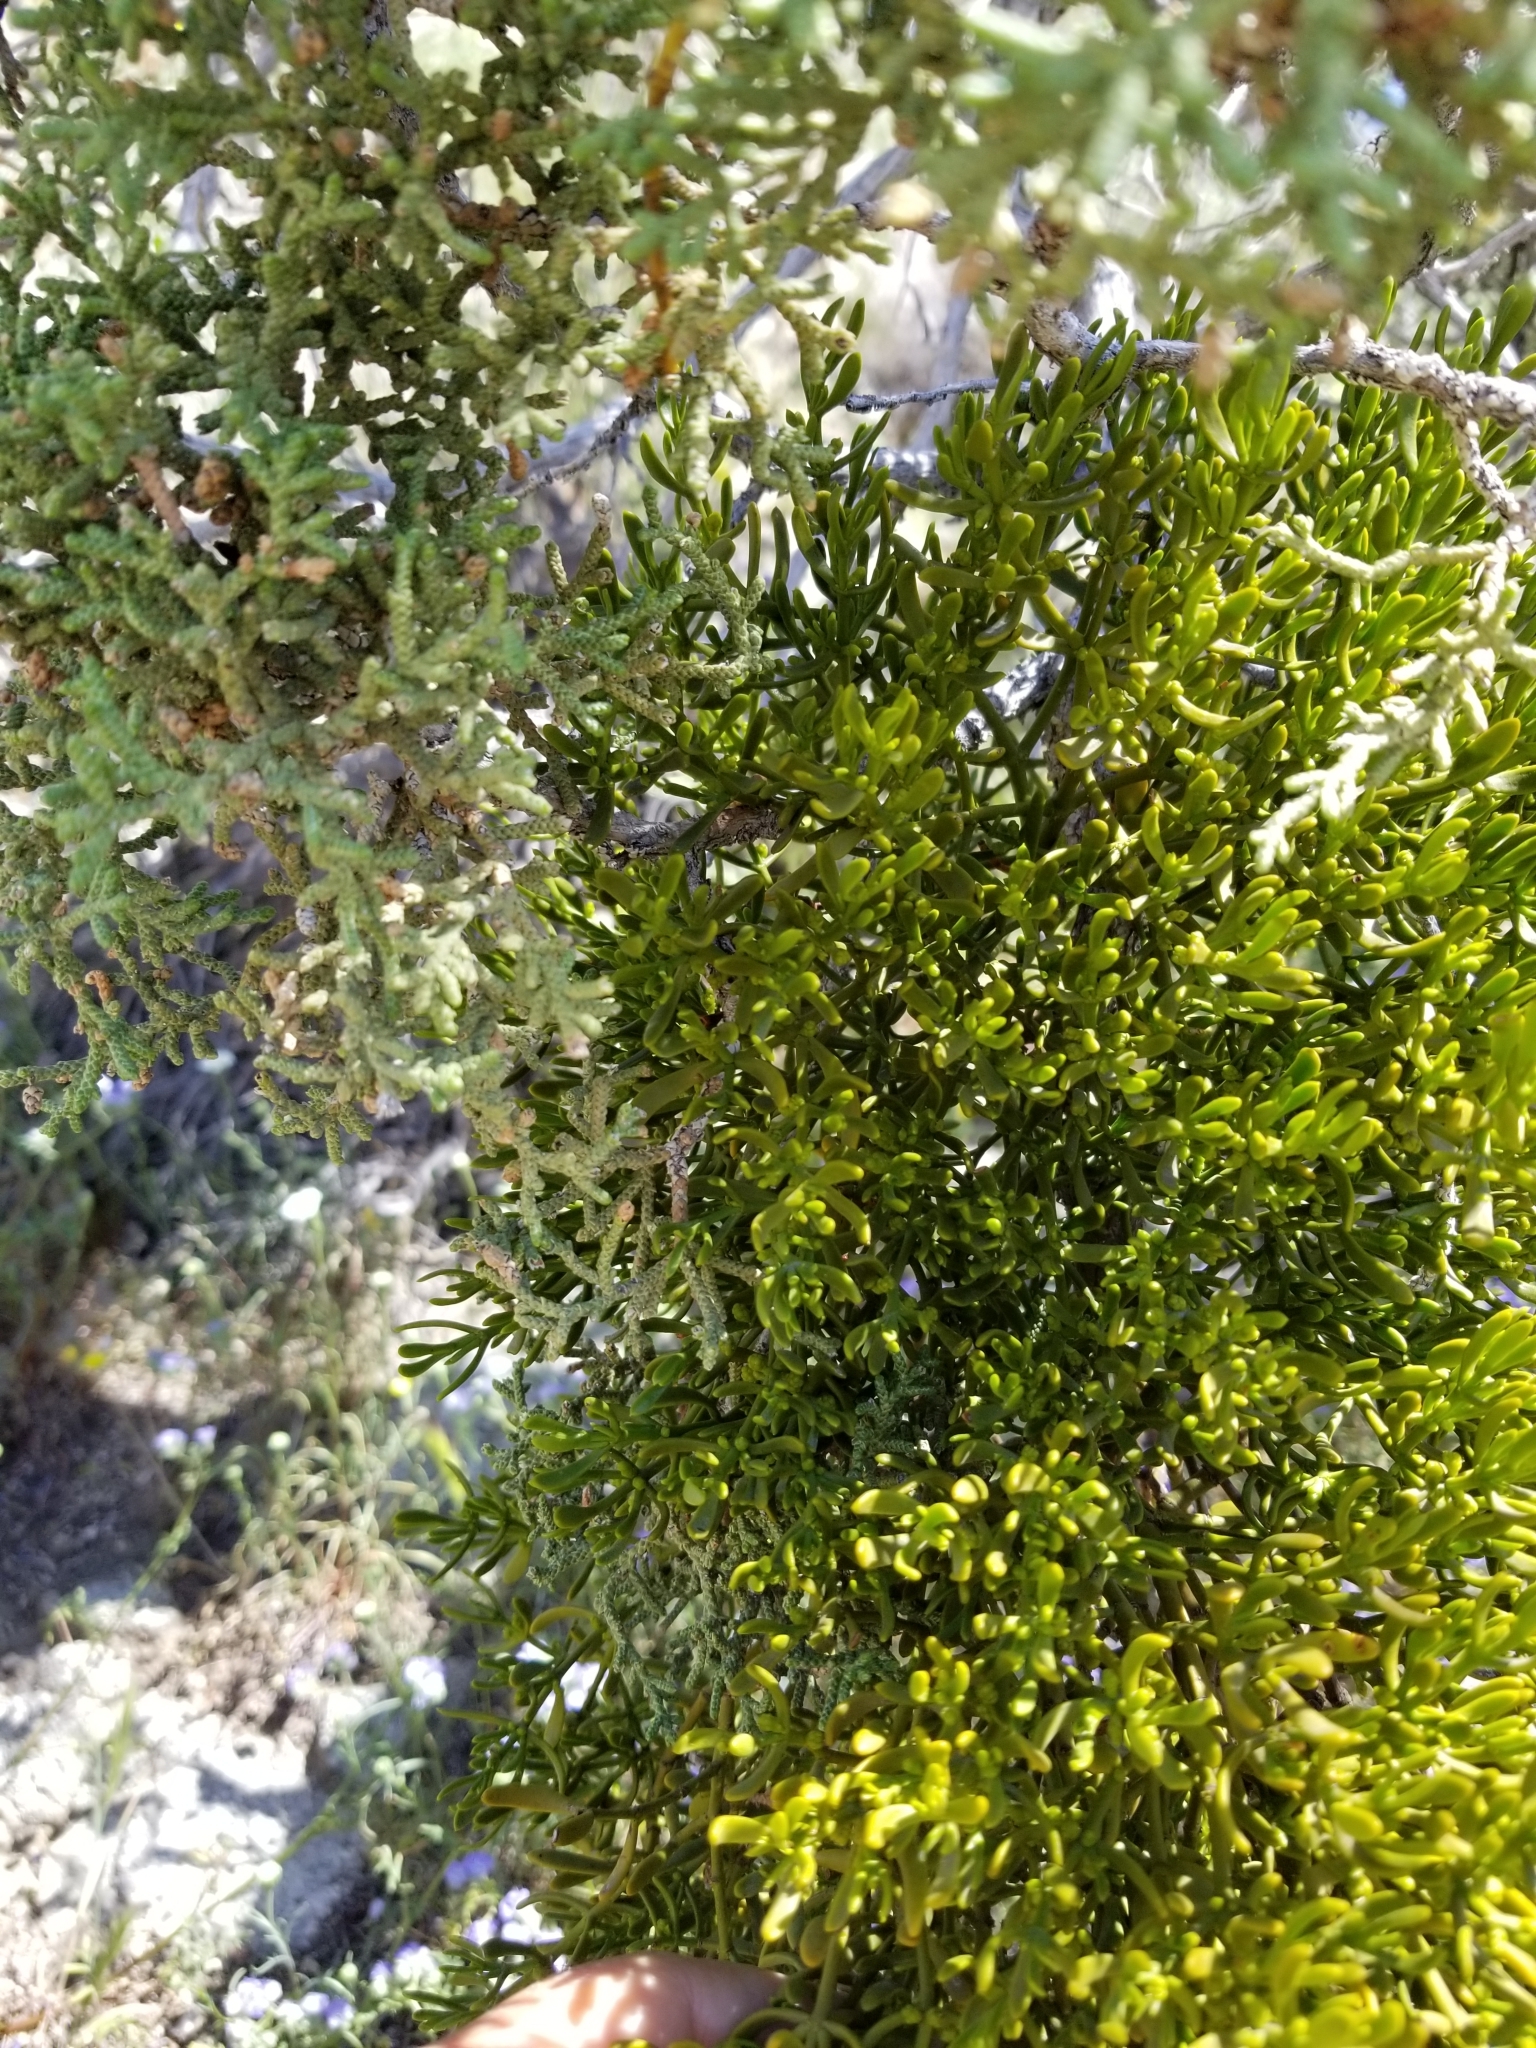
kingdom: Plantae
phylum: Tracheophyta
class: Magnoliopsida
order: Santalales
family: Viscaceae
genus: Phoradendron
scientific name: Phoradendron bolleanum
